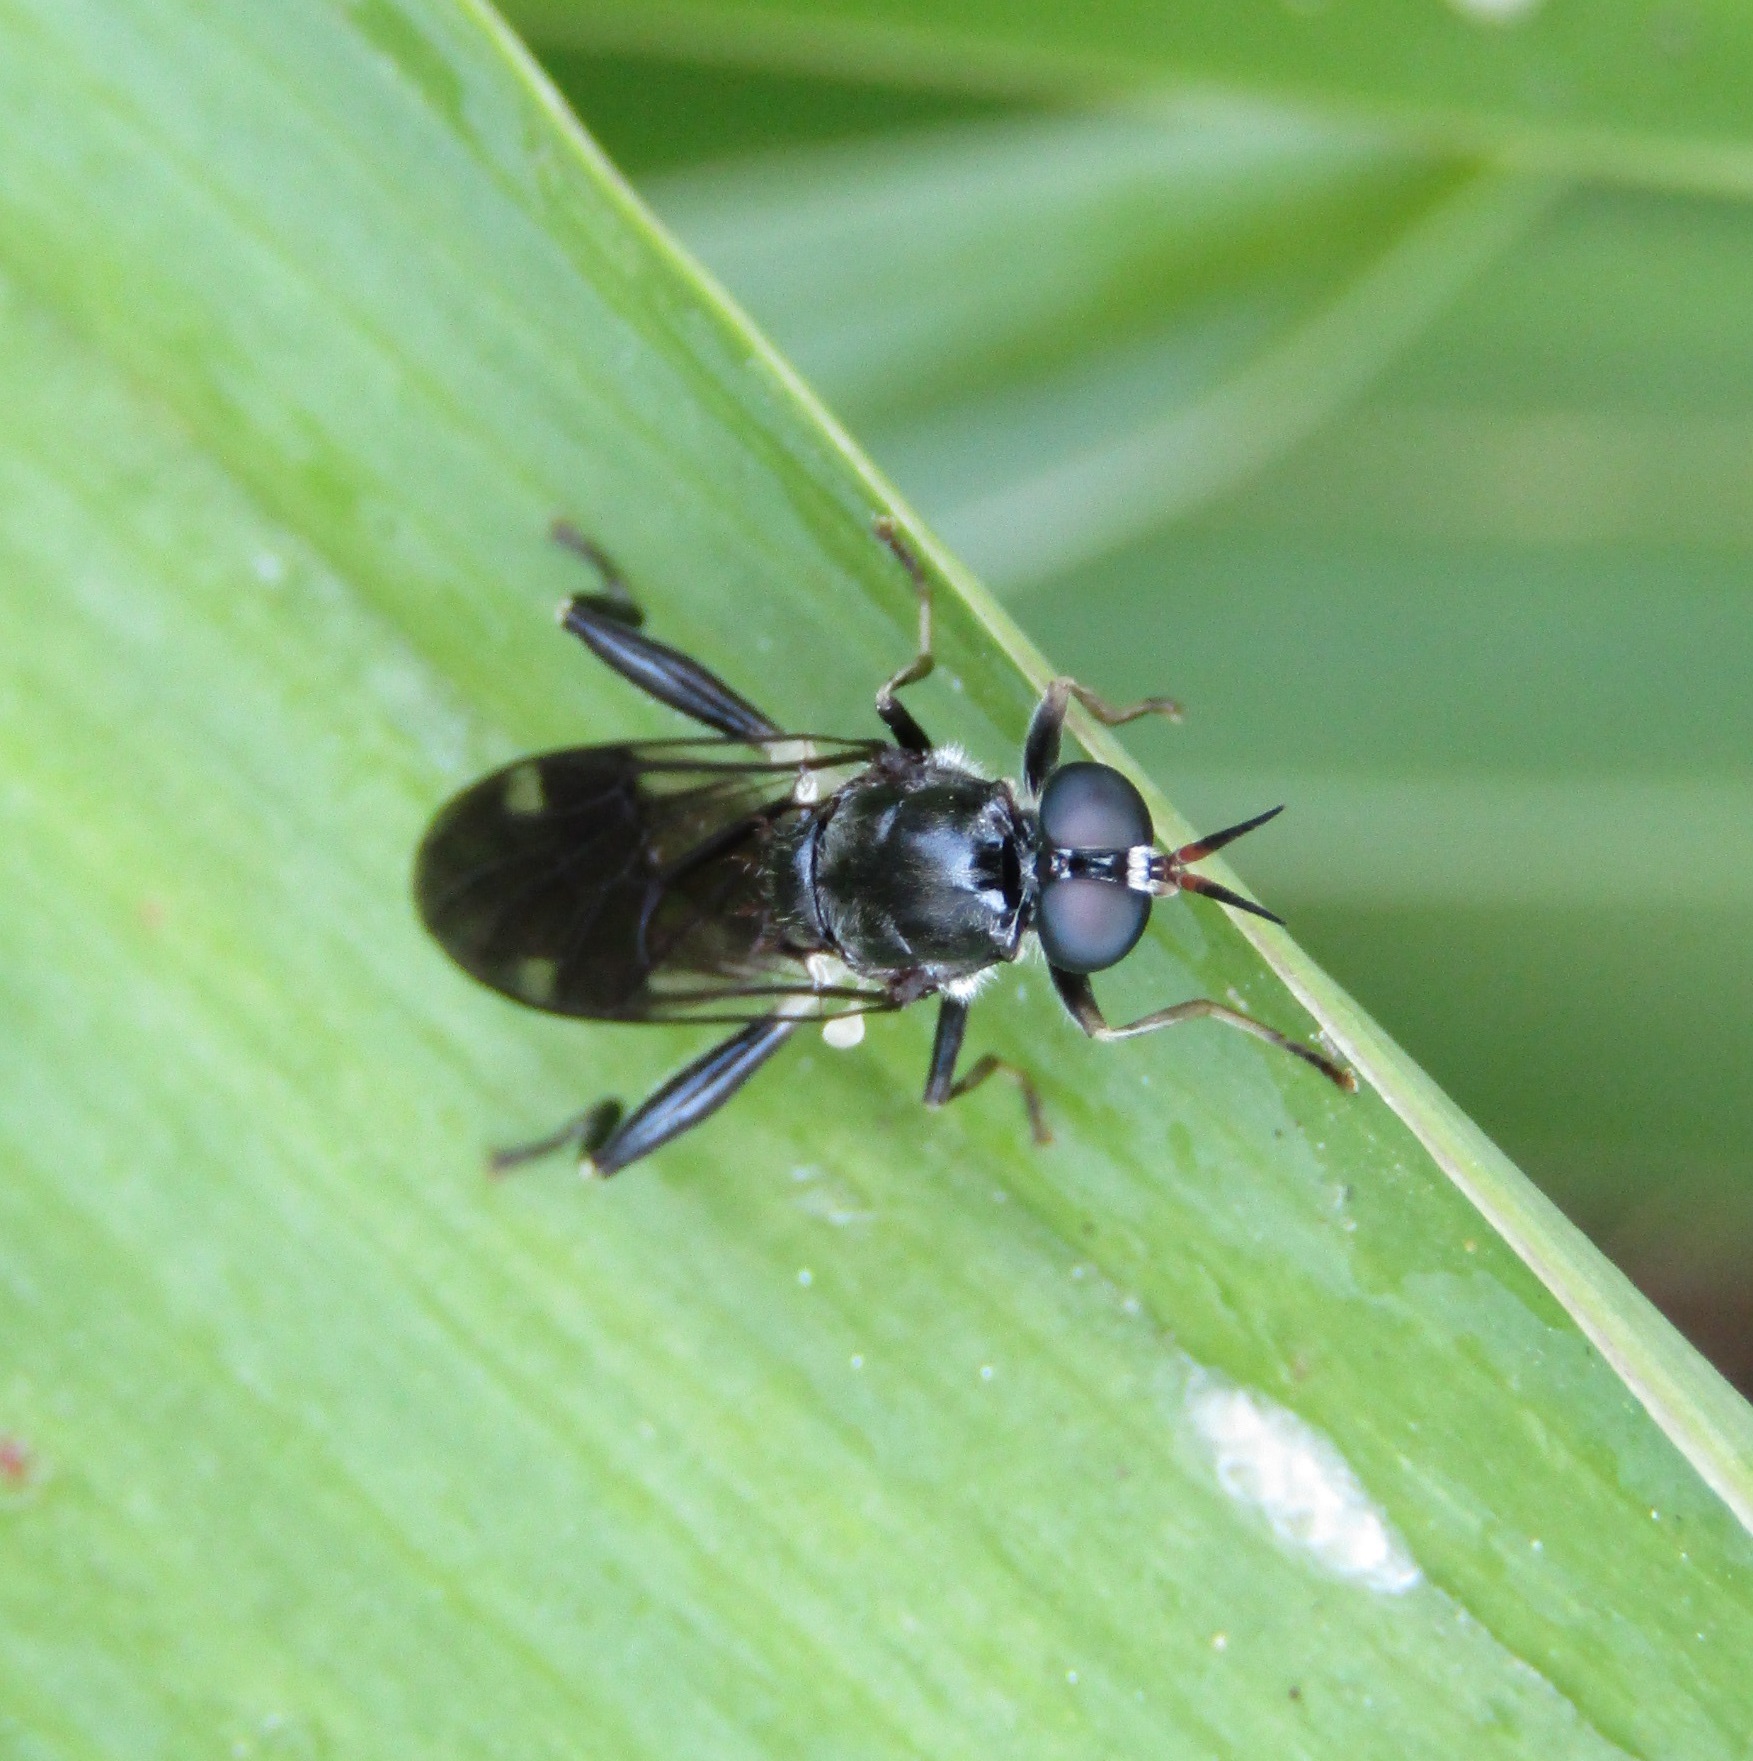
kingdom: Animalia
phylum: Arthropoda
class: Insecta
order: Diptera
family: Stratiomyidae
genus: Exaireta
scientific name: Exaireta spinigera
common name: Blue soldier fly
